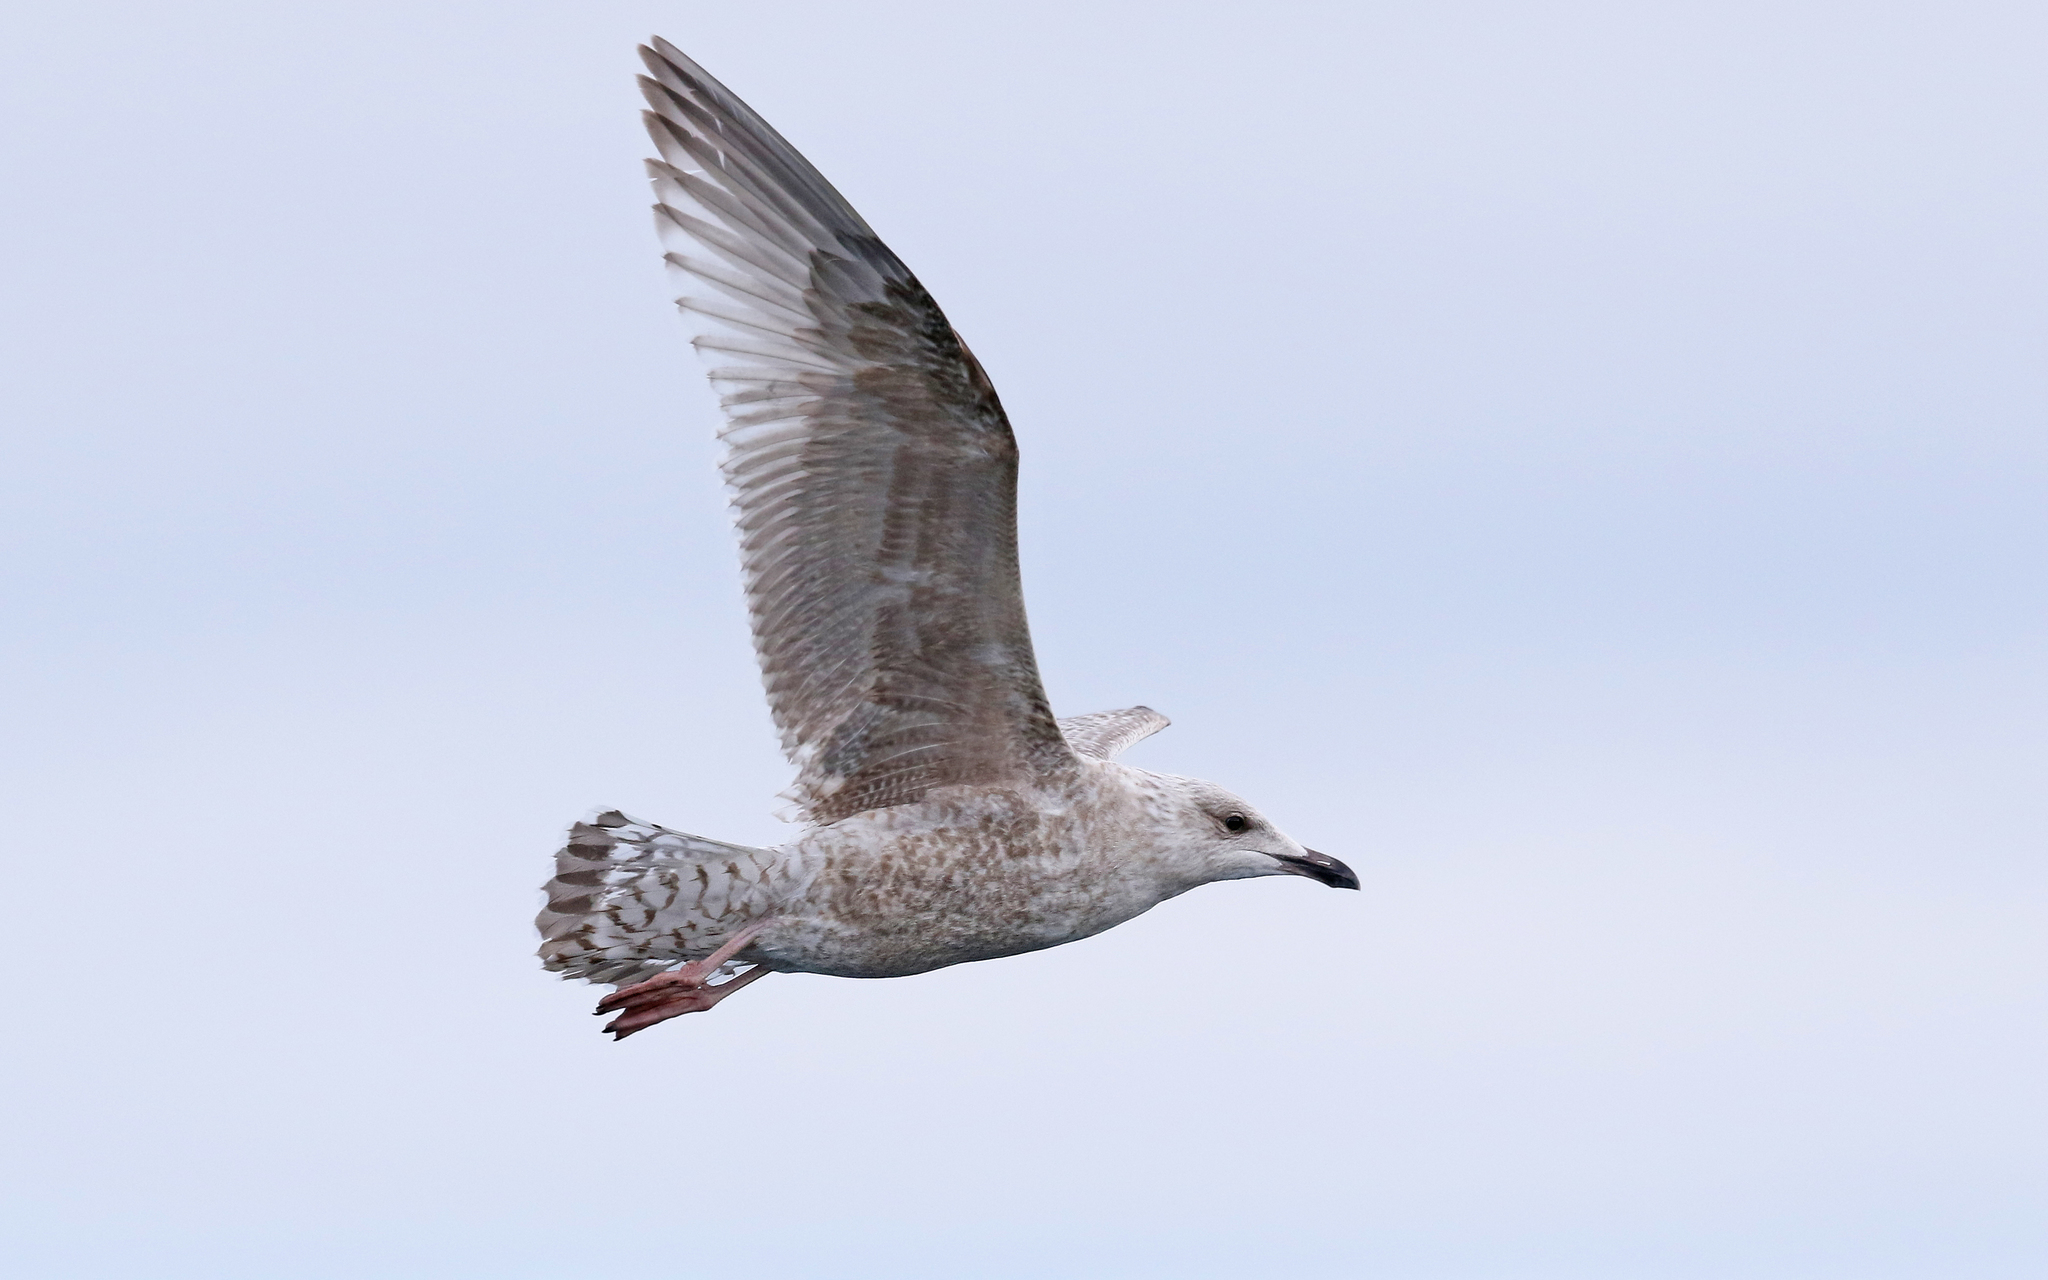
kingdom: Animalia
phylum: Chordata
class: Aves
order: Charadriiformes
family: Laridae
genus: Larus
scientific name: Larus argentatus
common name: Herring gull
